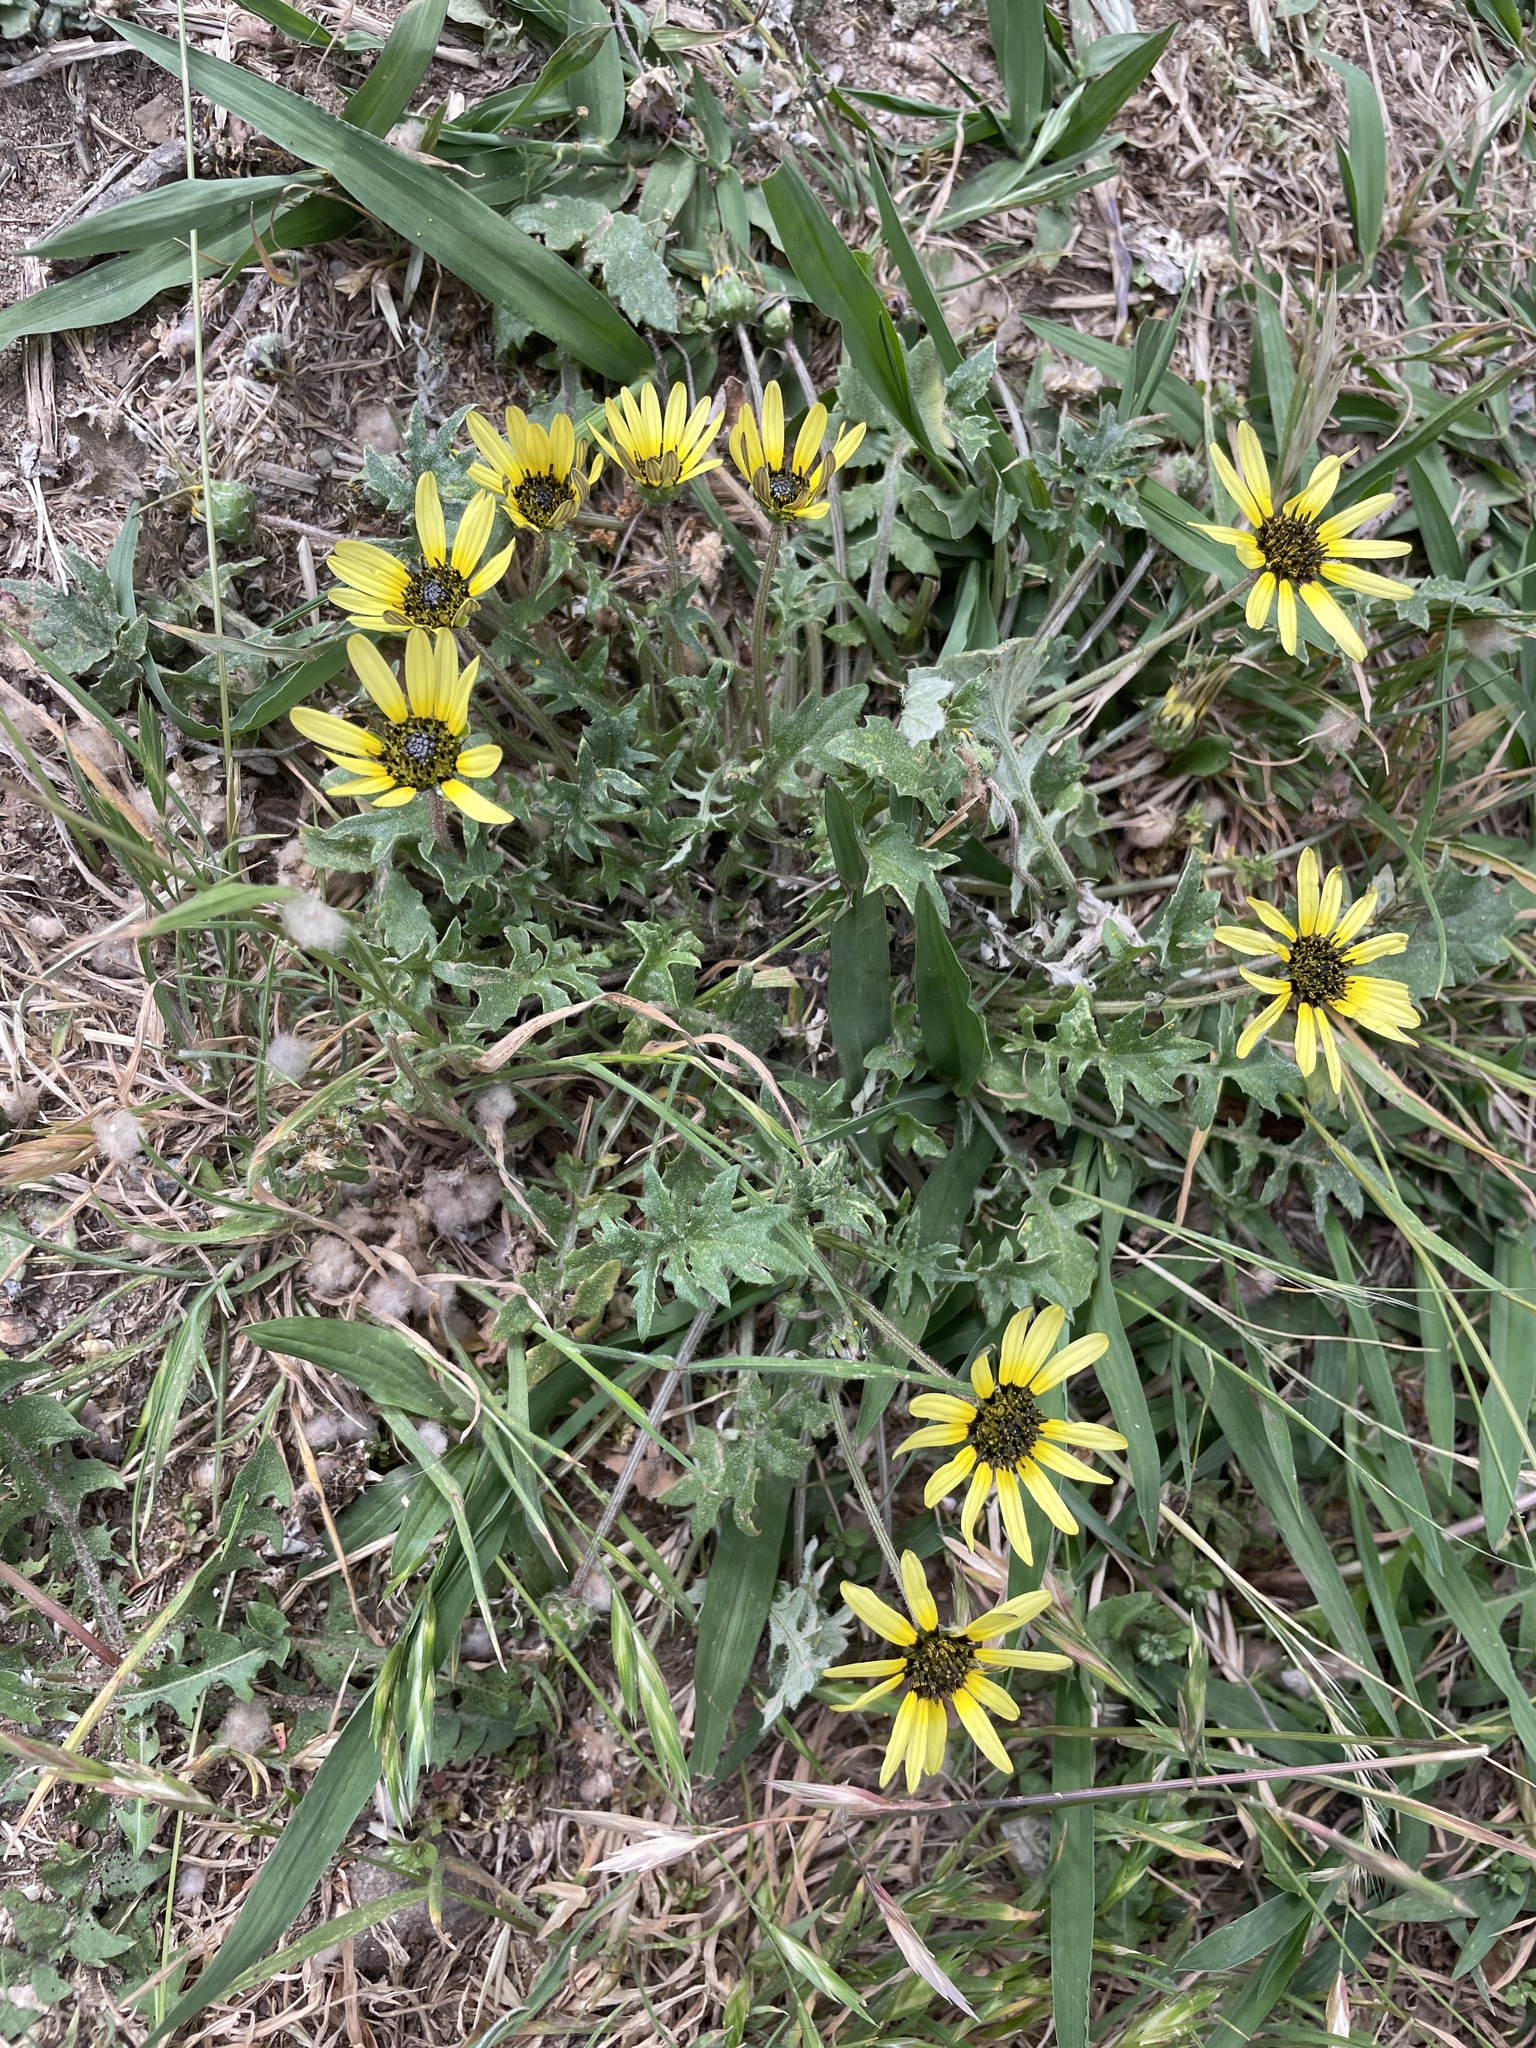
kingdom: Plantae
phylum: Tracheophyta
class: Magnoliopsida
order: Asterales
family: Asteraceae
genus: Arctotheca
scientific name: Arctotheca calendula
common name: Capeweed
